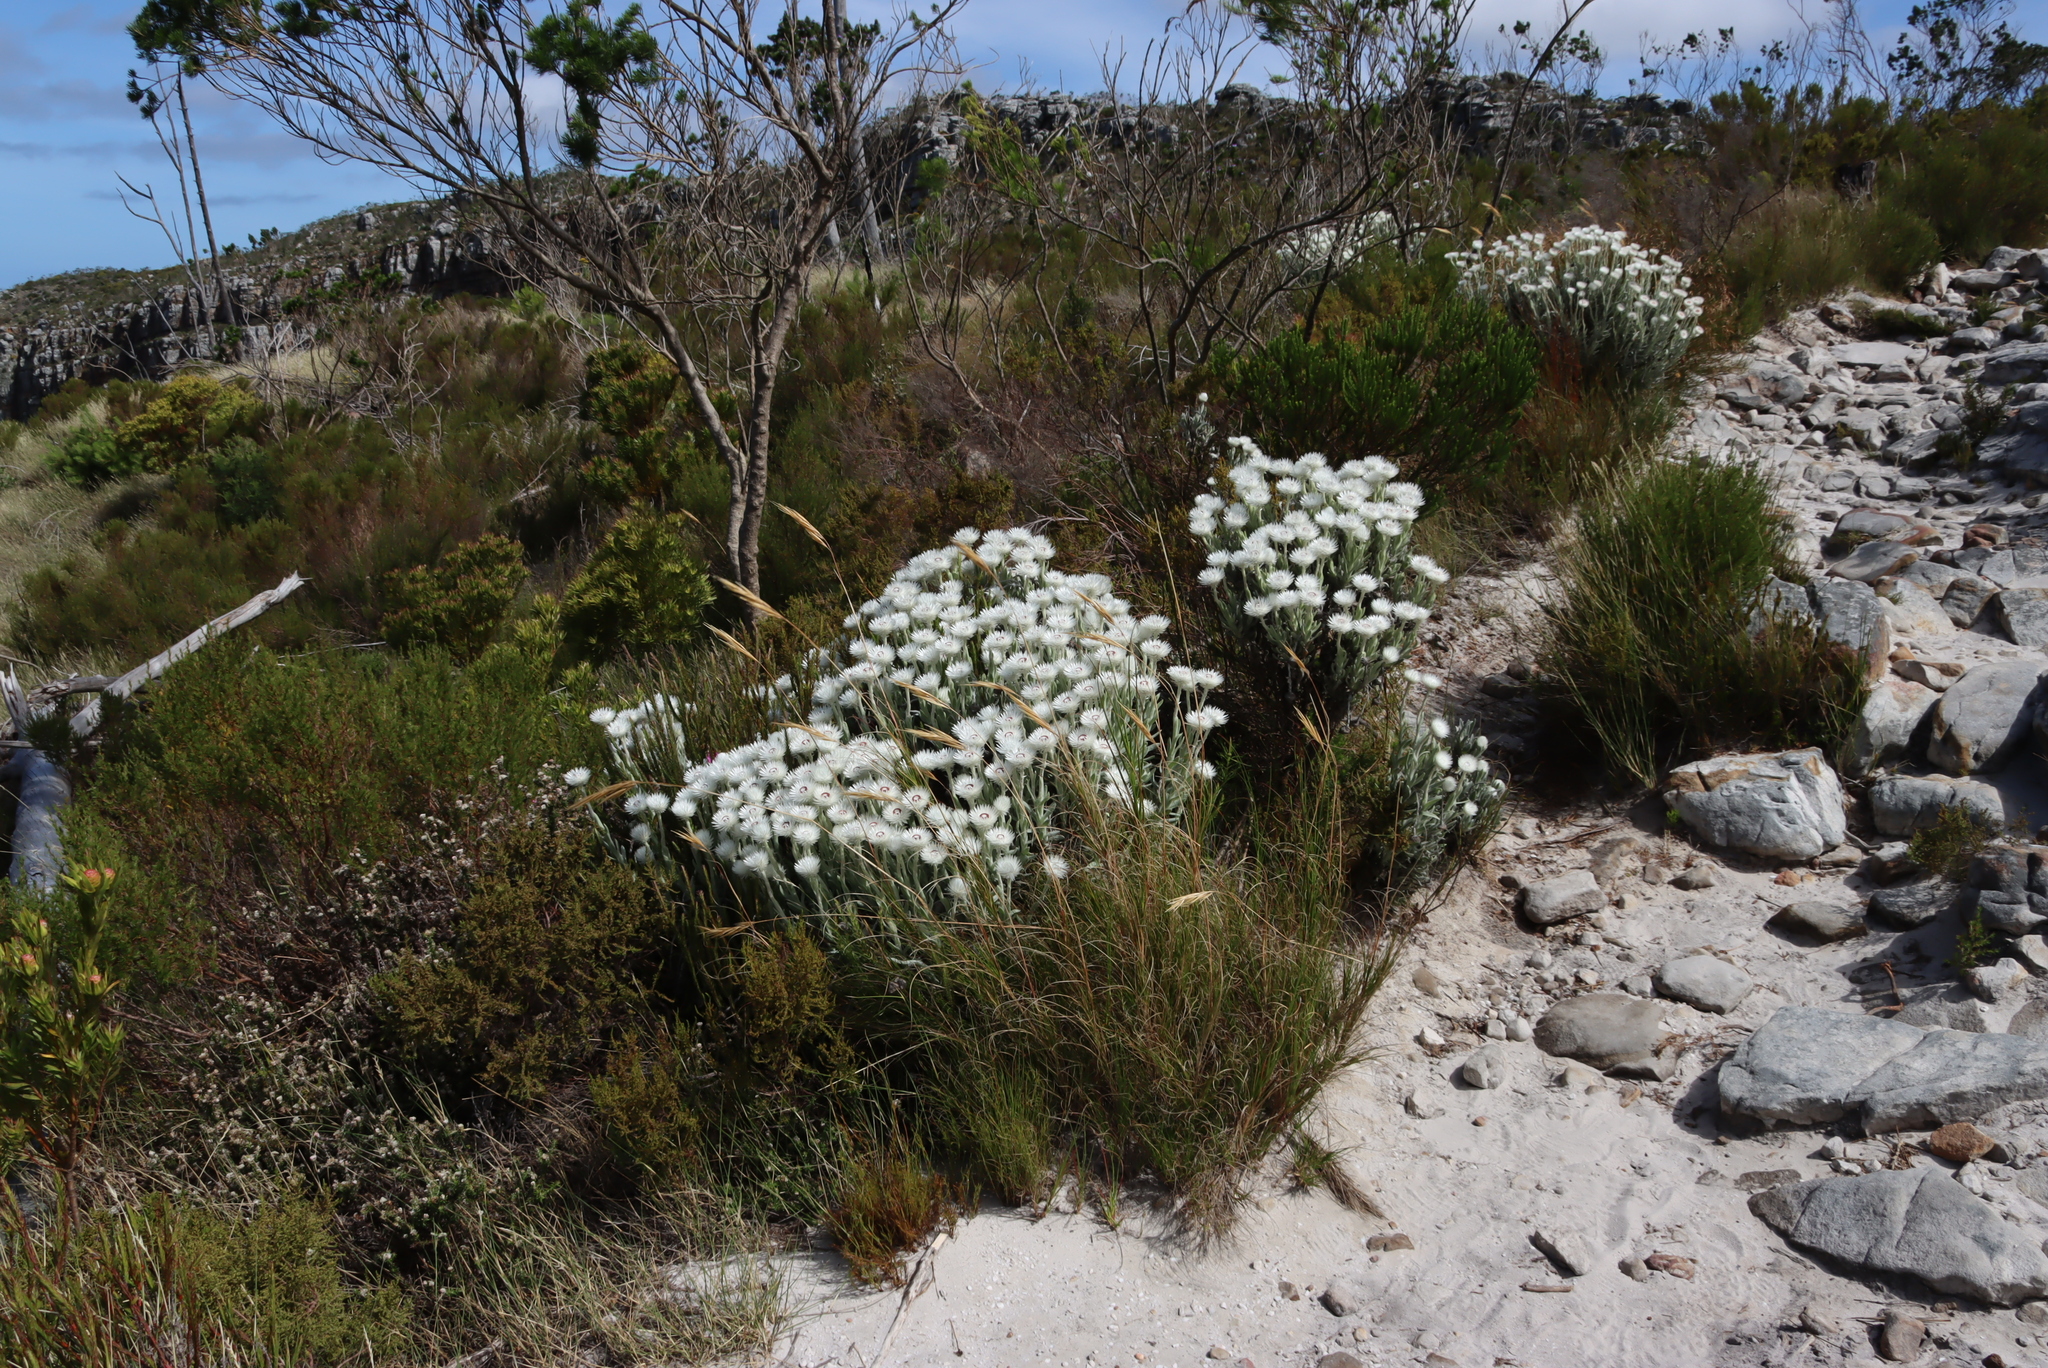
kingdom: Plantae
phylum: Tracheophyta
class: Magnoliopsida
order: Asterales
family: Asteraceae
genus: Syncarpha
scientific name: Syncarpha vestita
